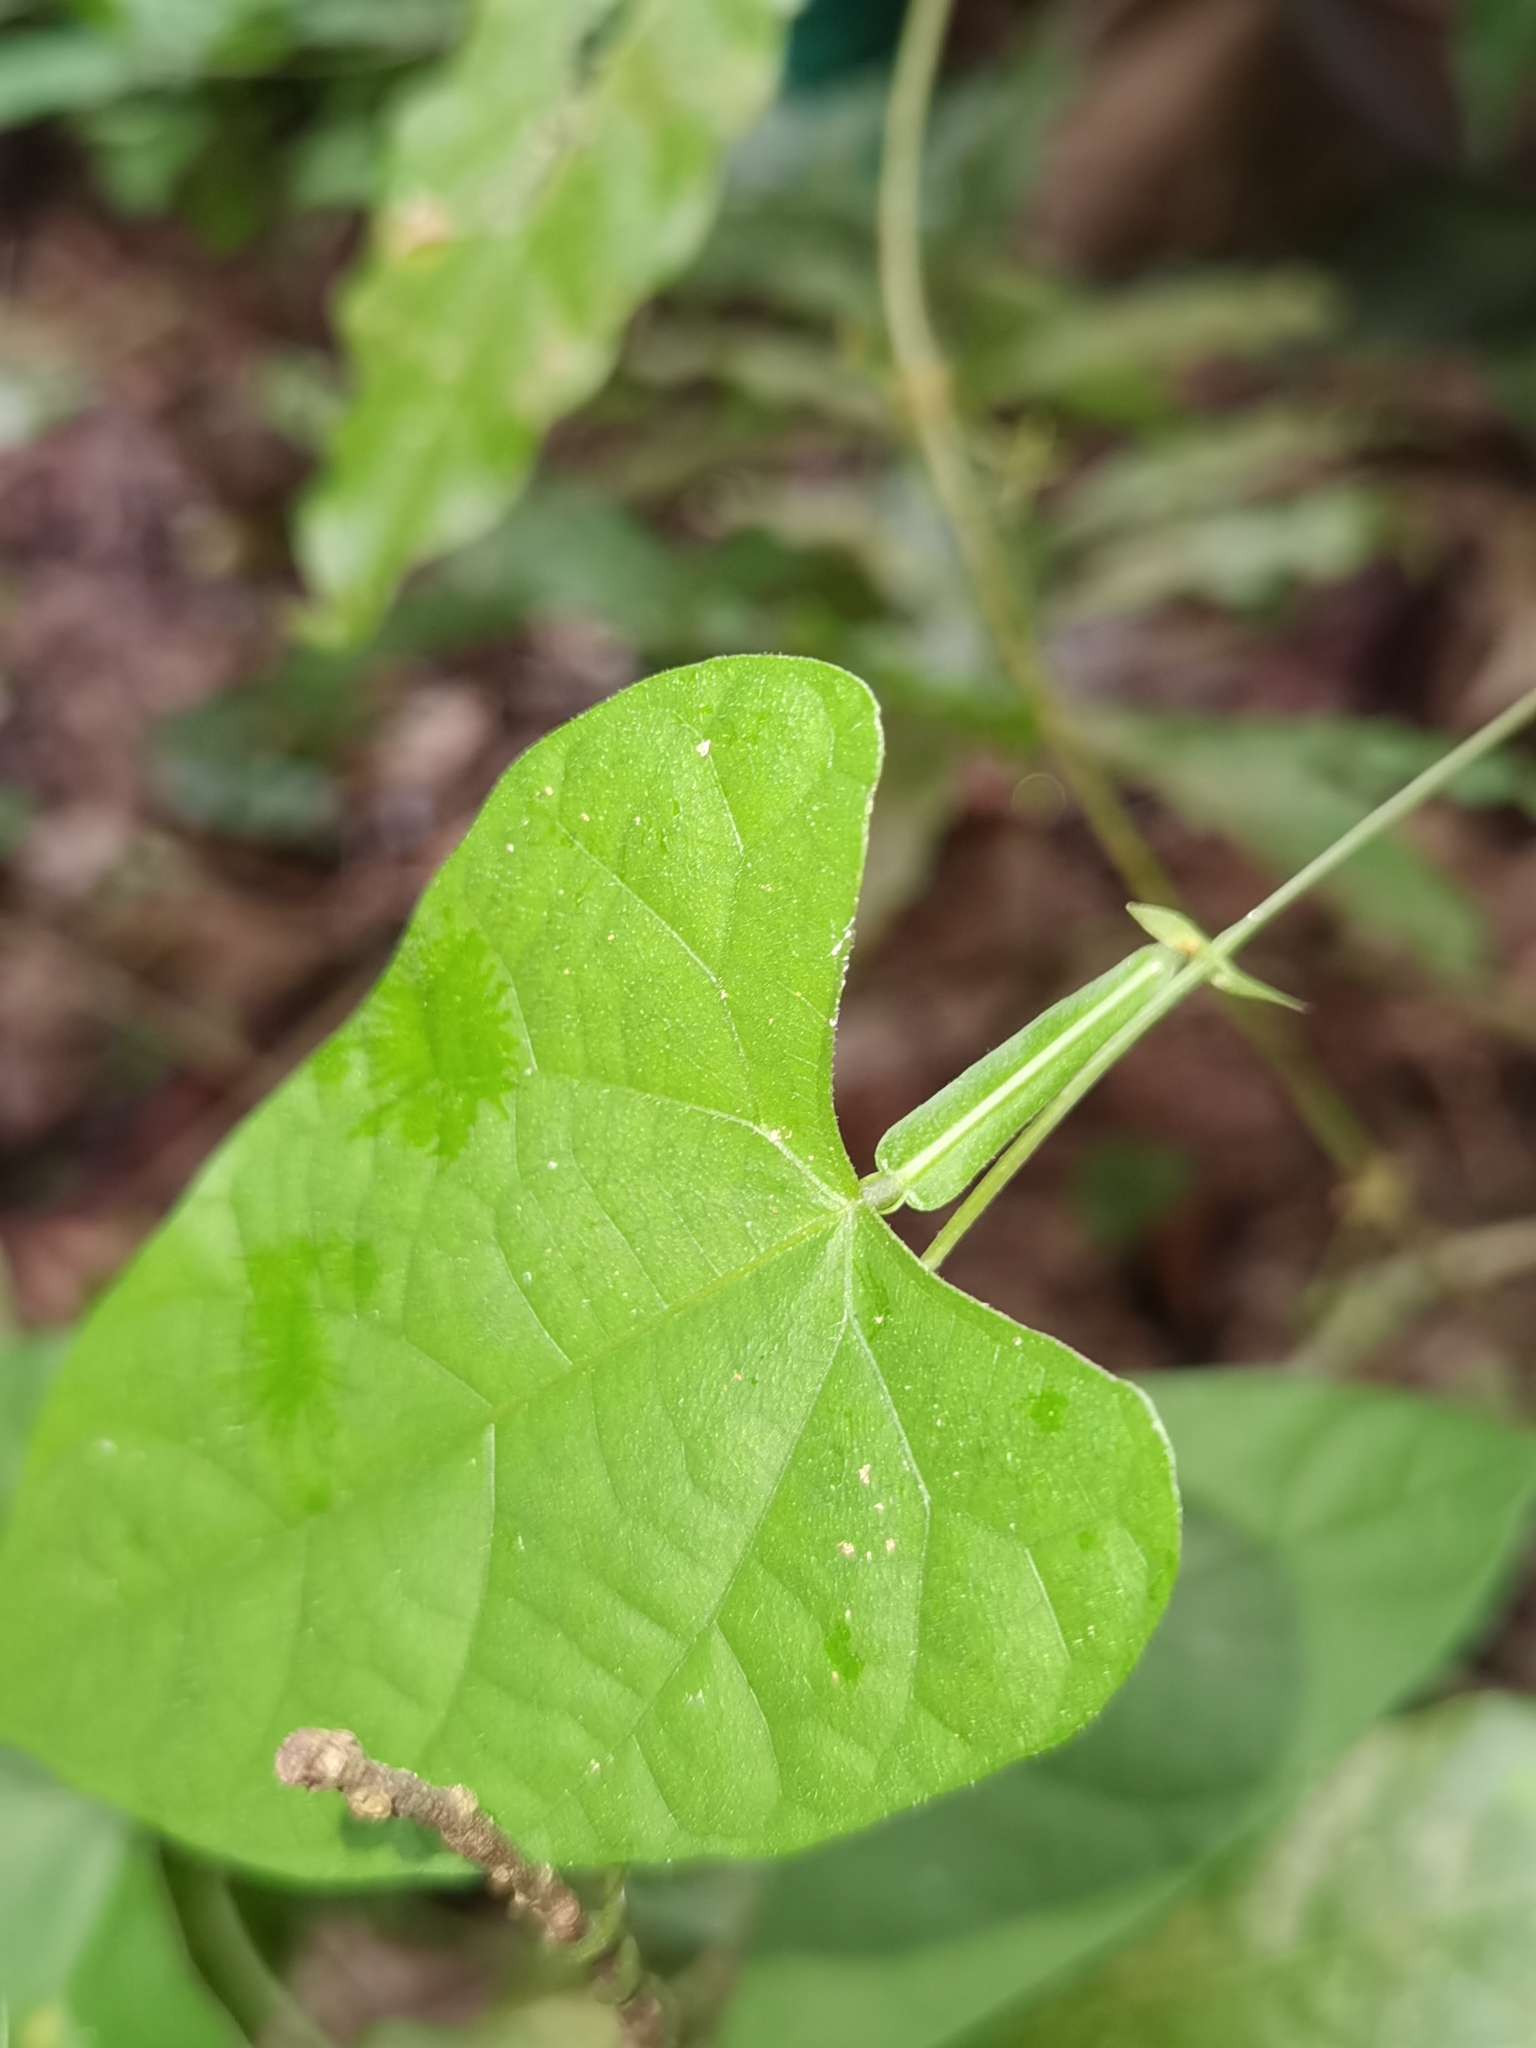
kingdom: Plantae
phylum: Tracheophyta
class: Magnoliopsida
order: Fabales
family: Fabaceae
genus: Centrosema
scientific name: Centrosema sagittatum
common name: Arrowleaf butterfly pea
